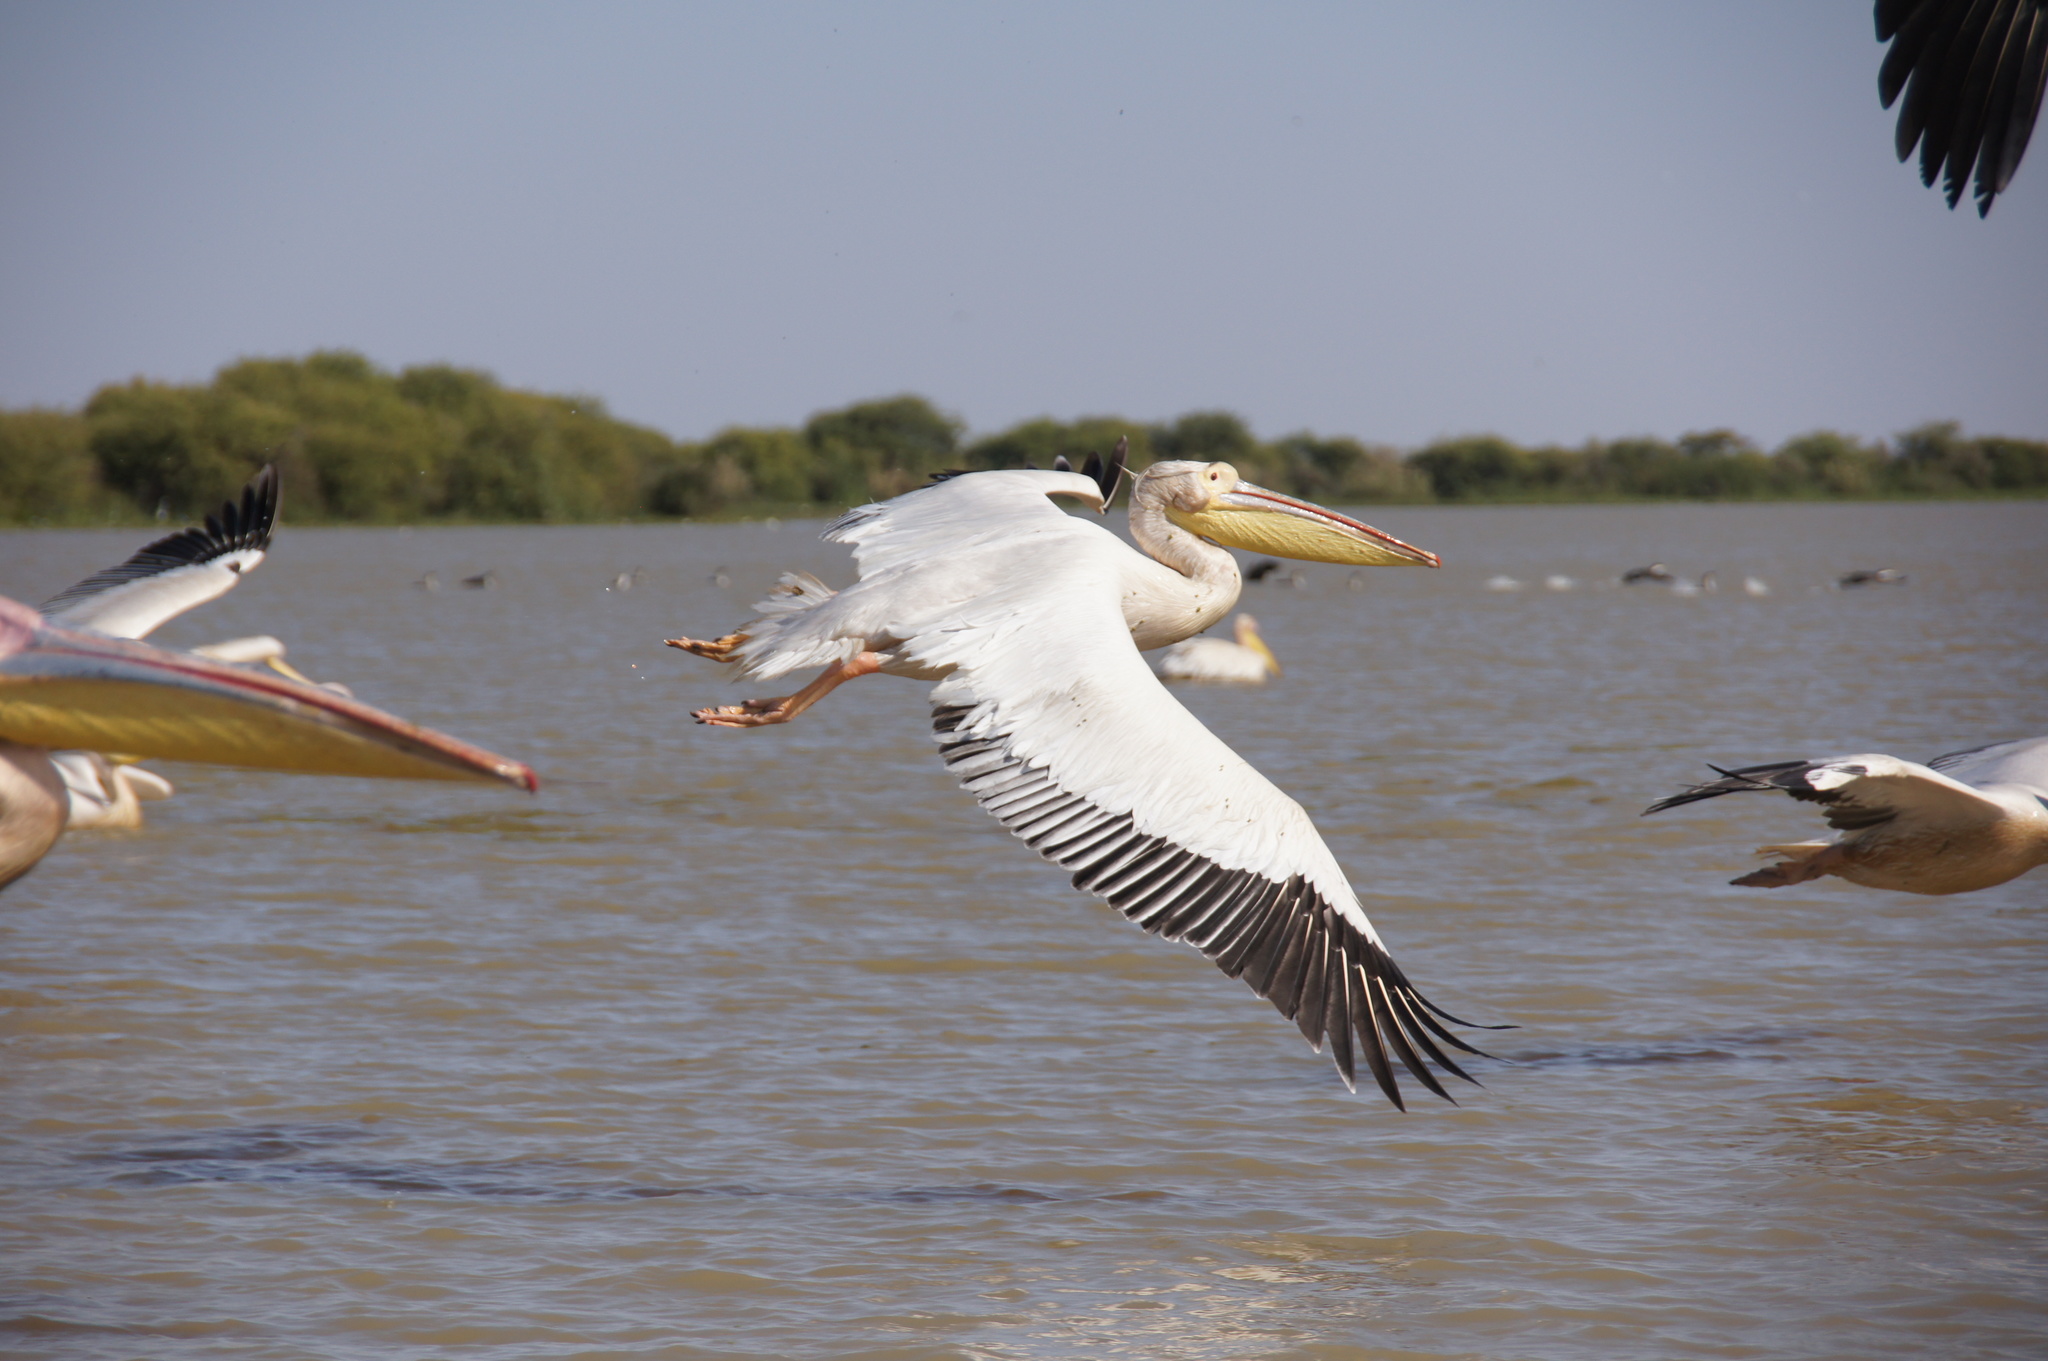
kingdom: Animalia
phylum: Chordata
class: Aves
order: Pelecaniformes
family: Pelecanidae
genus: Pelecanus
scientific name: Pelecanus onocrotalus
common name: Great white pelican
